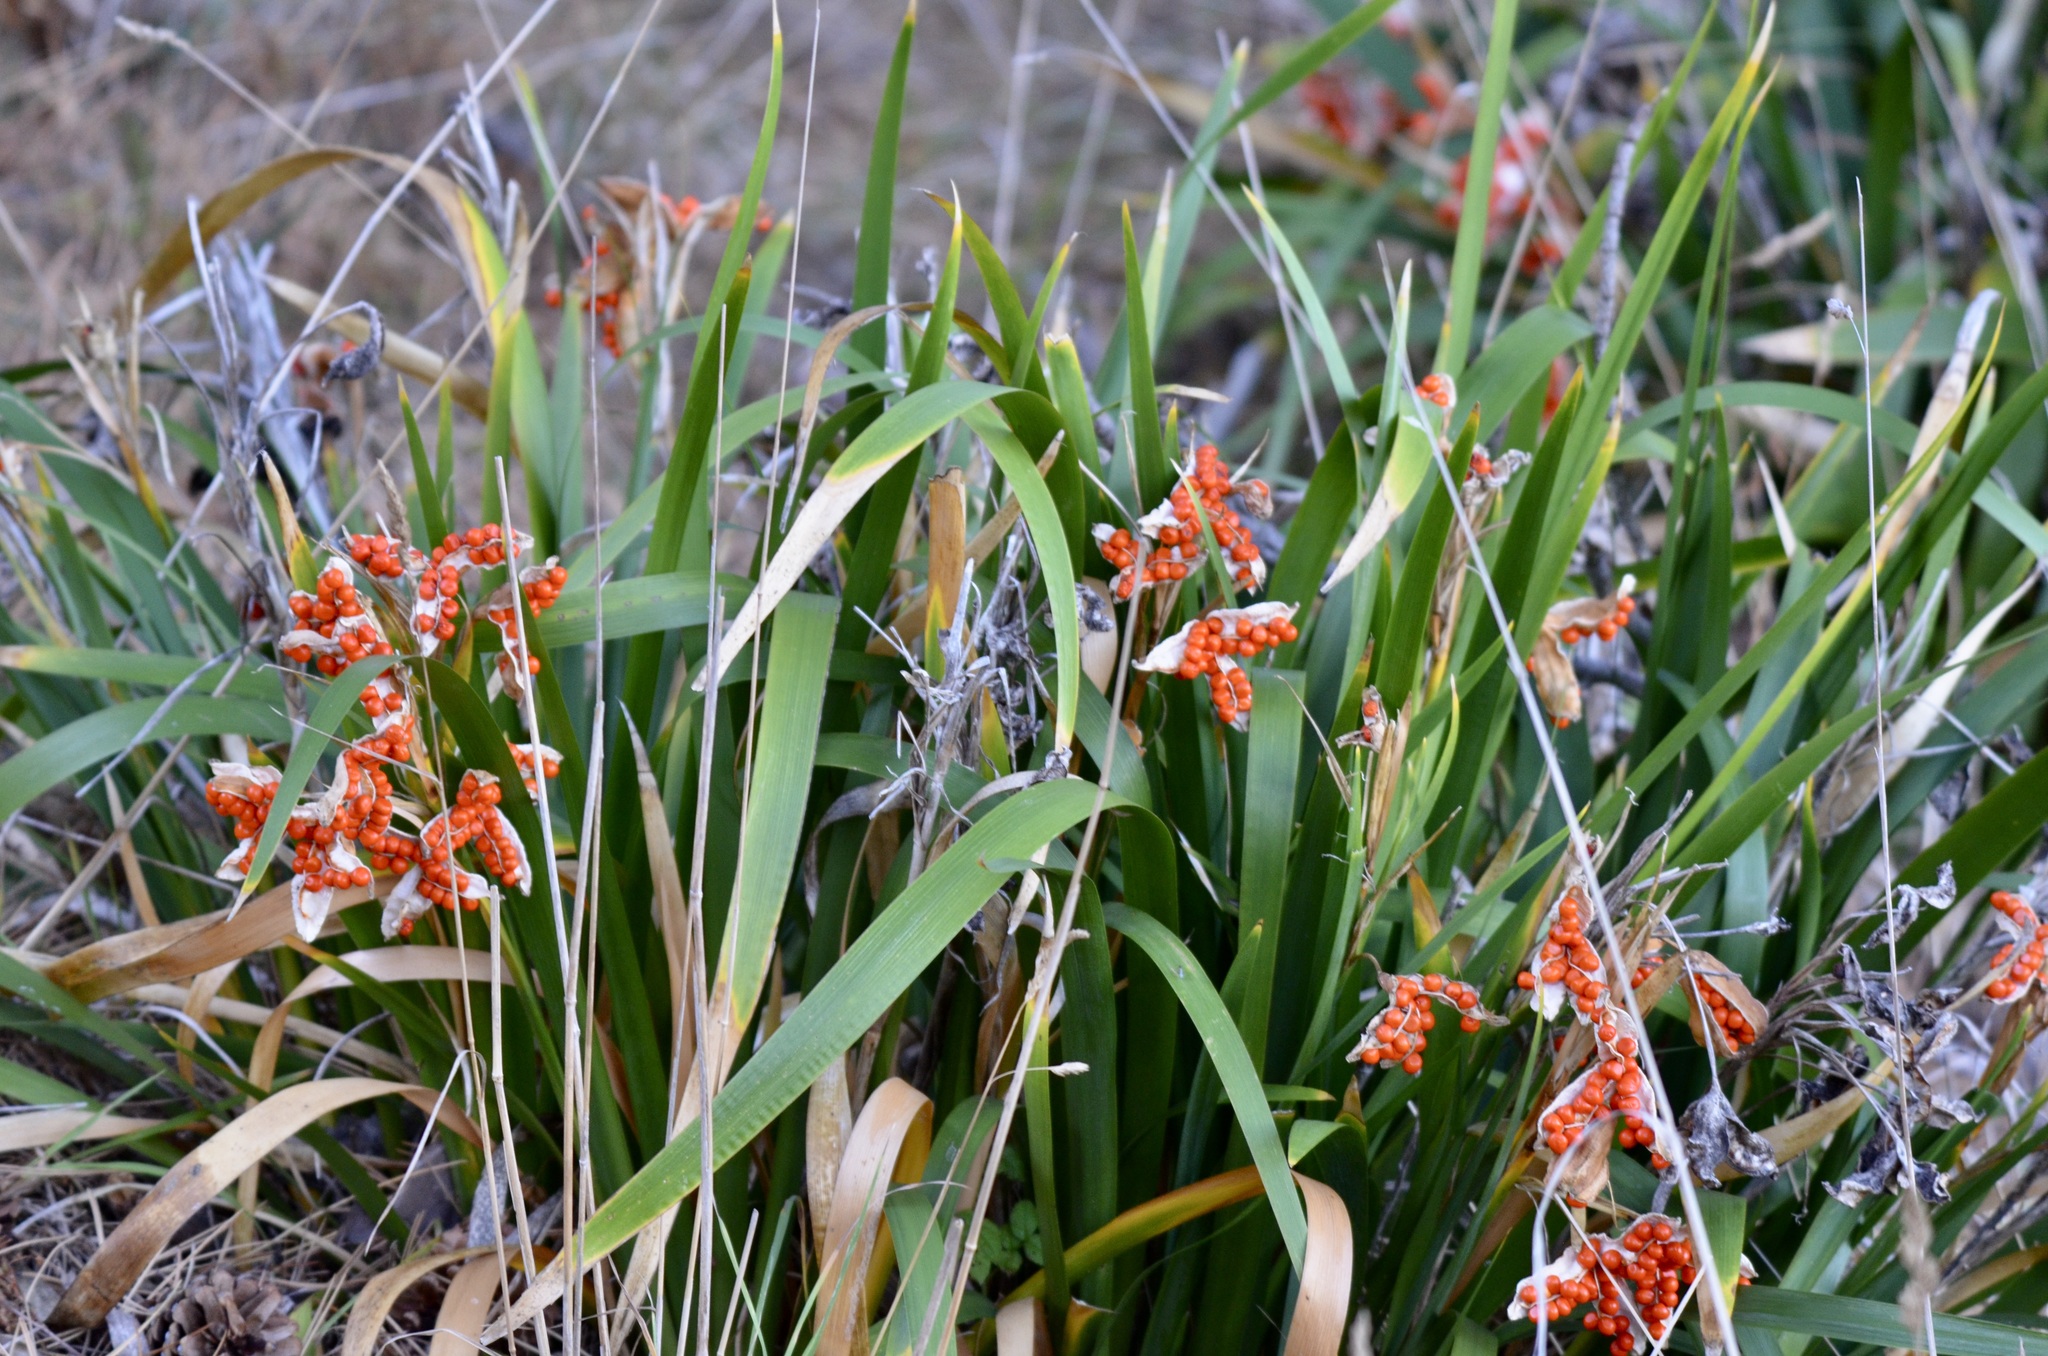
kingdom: Plantae
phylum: Tracheophyta
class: Liliopsida
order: Asparagales
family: Iridaceae
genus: Iris
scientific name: Iris foetidissima
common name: Stinking iris
